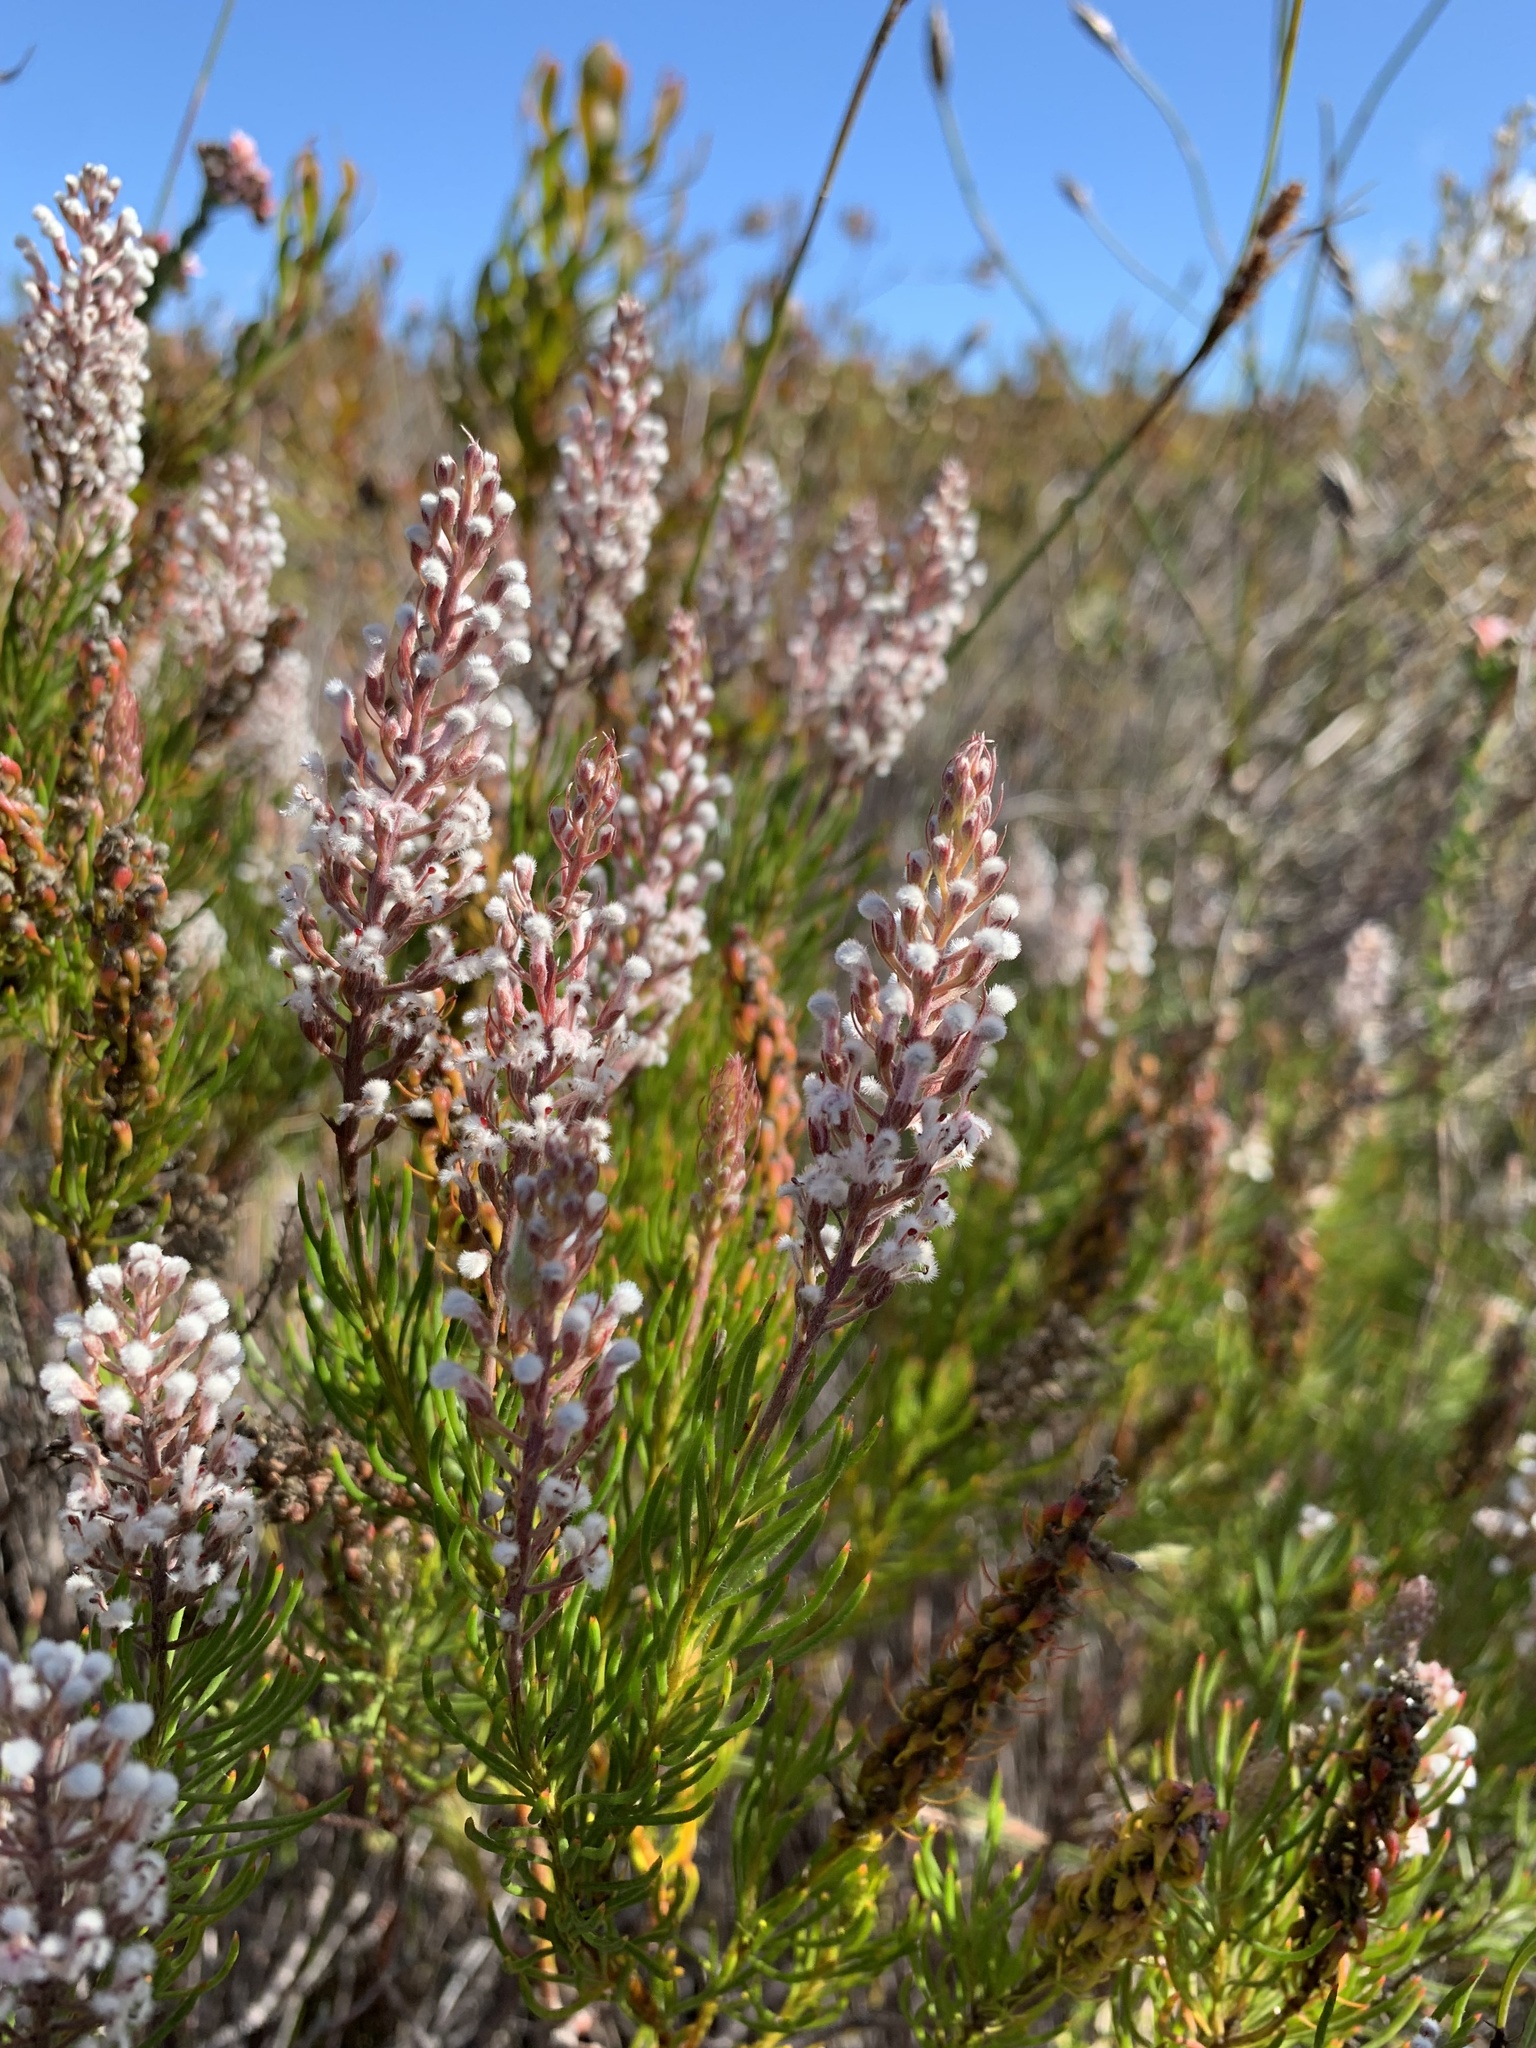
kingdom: Plantae
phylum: Tracheophyta
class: Magnoliopsida
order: Proteales
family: Proteaceae
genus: Spatalla
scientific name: Spatalla curvifolia
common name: White-stalked spoon
